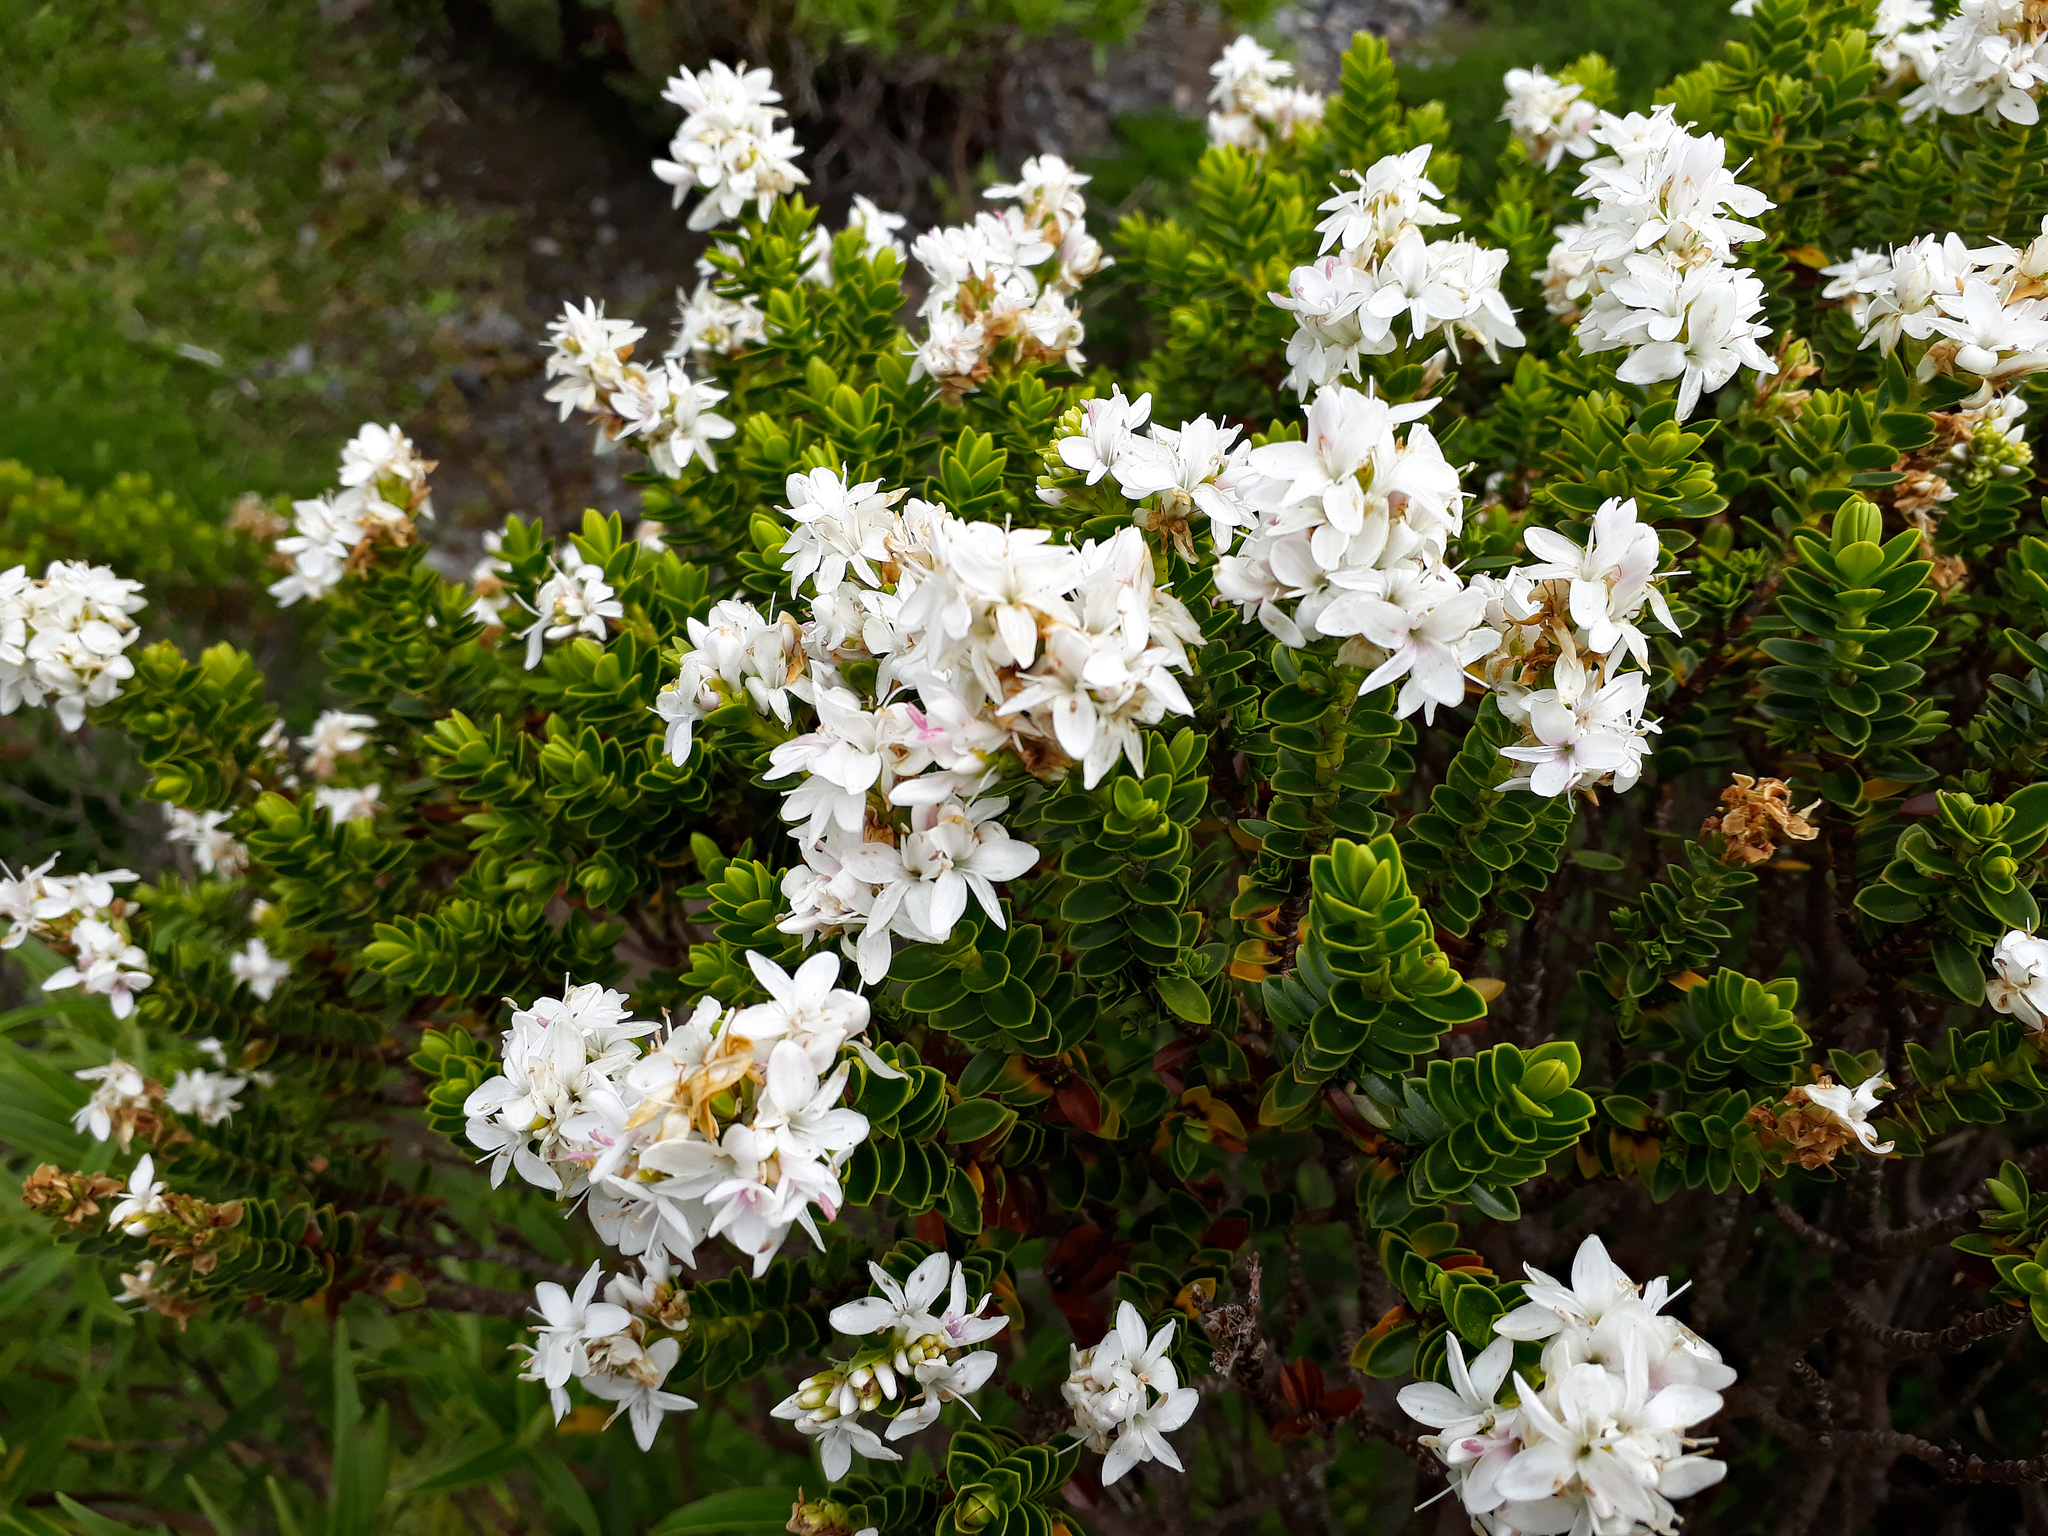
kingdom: Plantae
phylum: Tracheophyta
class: Magnoliopsida
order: Lamiales
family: Plantaginaceae
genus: Veronica
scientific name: Veronica odora
